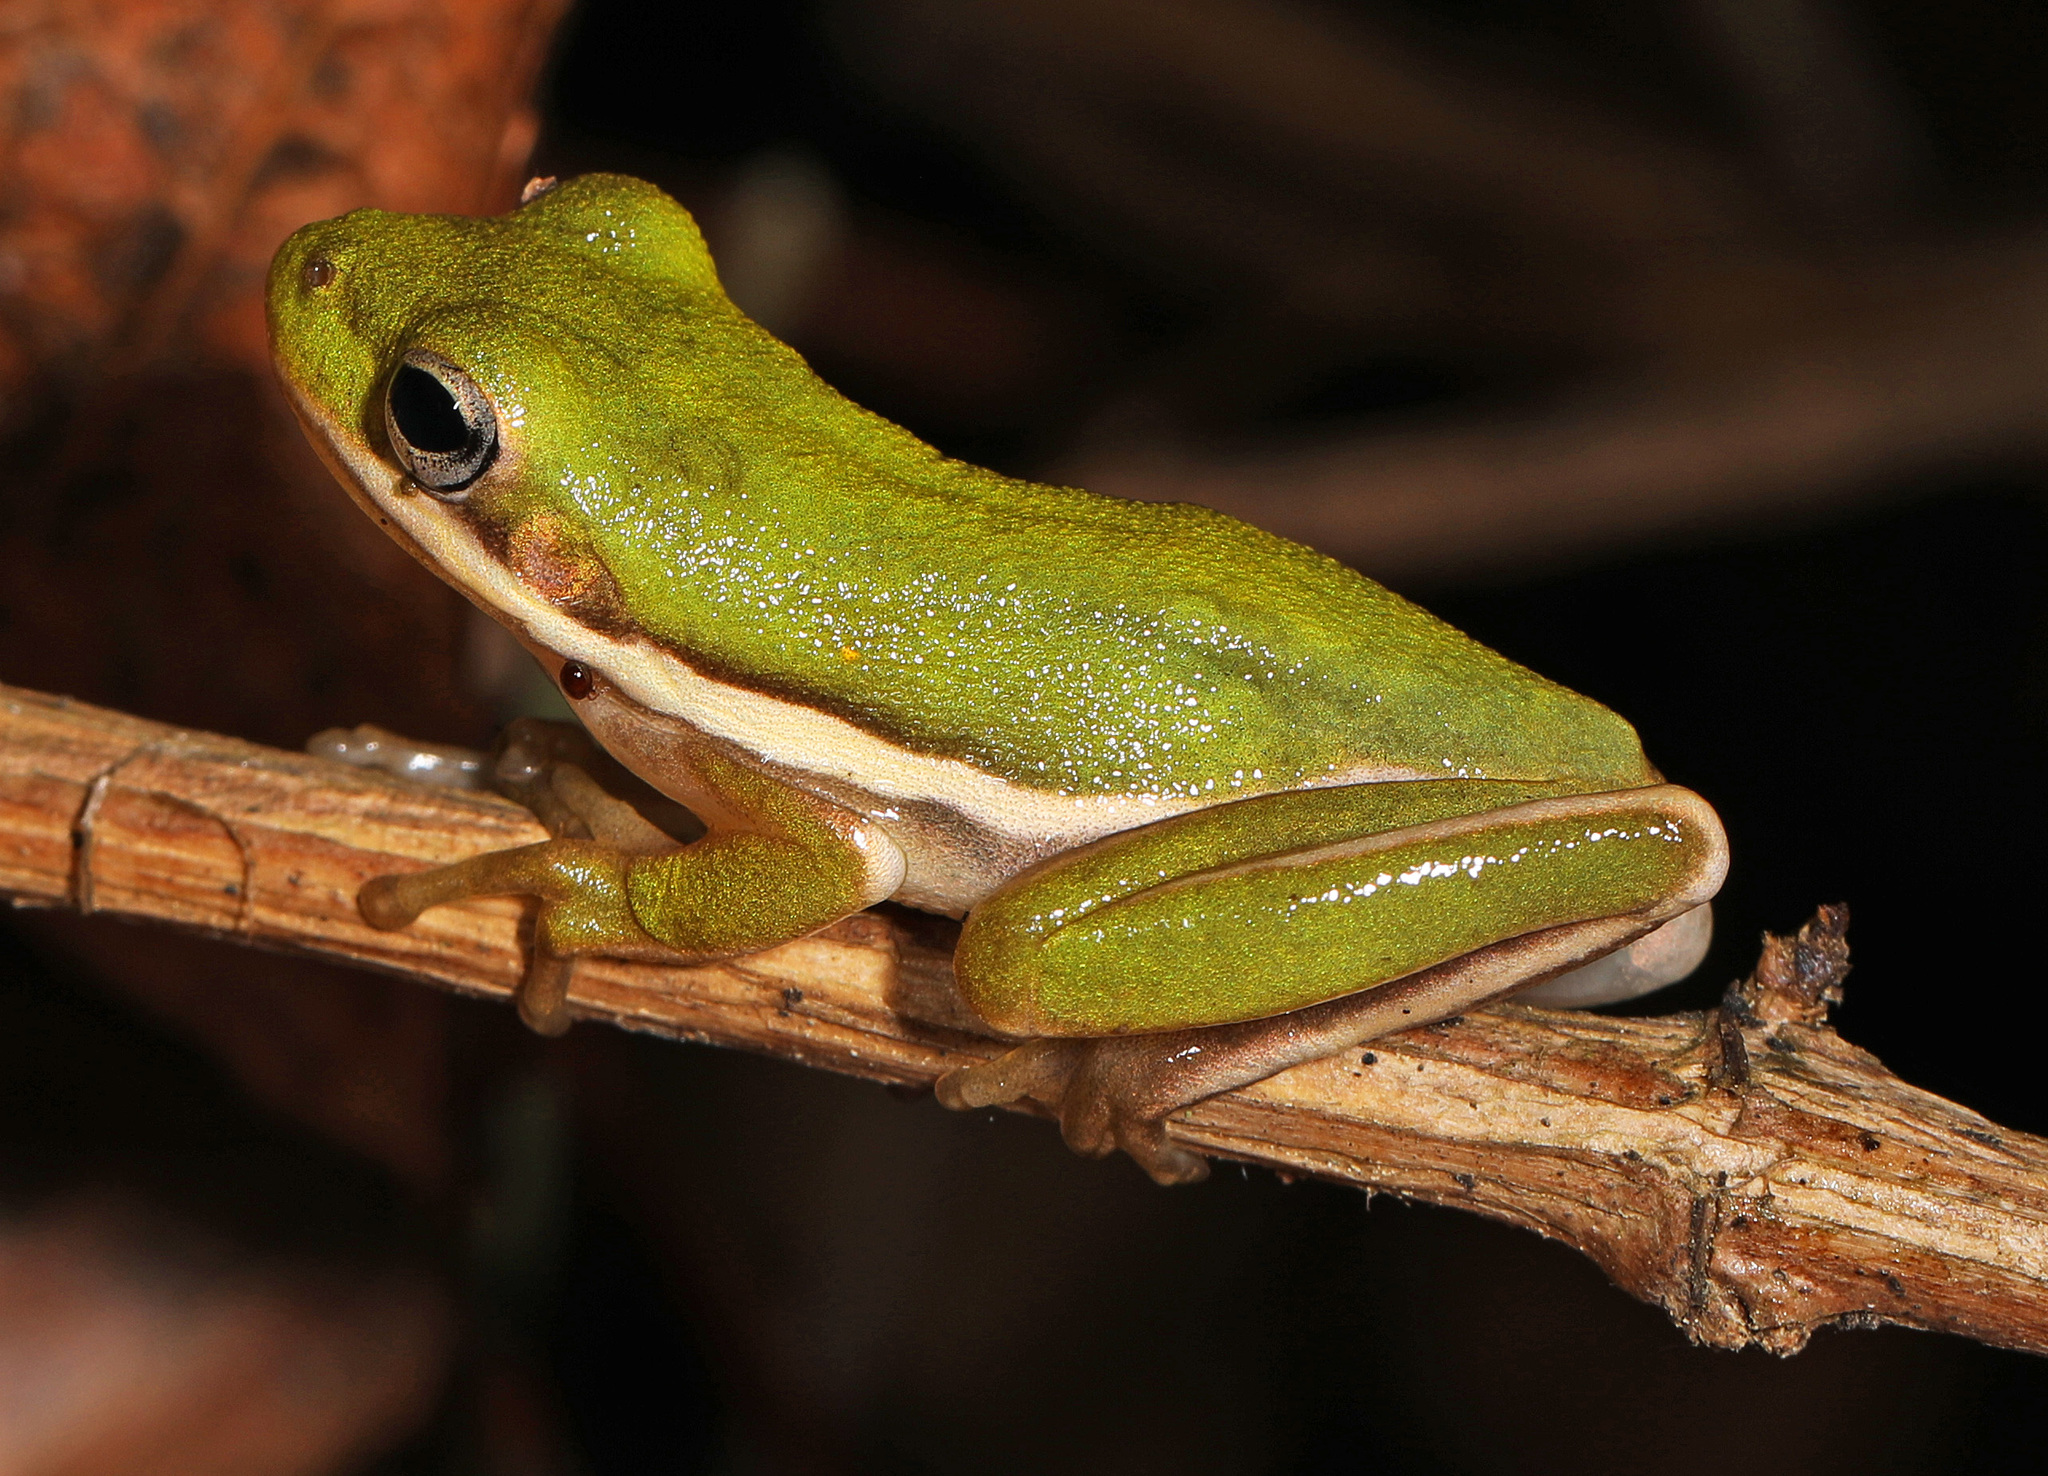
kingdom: Animalia
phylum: Chordata
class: Amphibia
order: Anura
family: Hylidae
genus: Dryophytes
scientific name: Dryophytes cinereus
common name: Green treefrog
